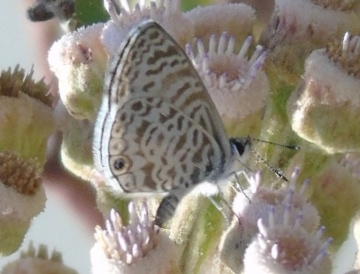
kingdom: Animalia
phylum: Arthropoda
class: Insecta
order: Lepidoptera
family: Lycaenidae
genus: Leptotes
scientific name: Leptotes cassius
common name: Cassius blue
